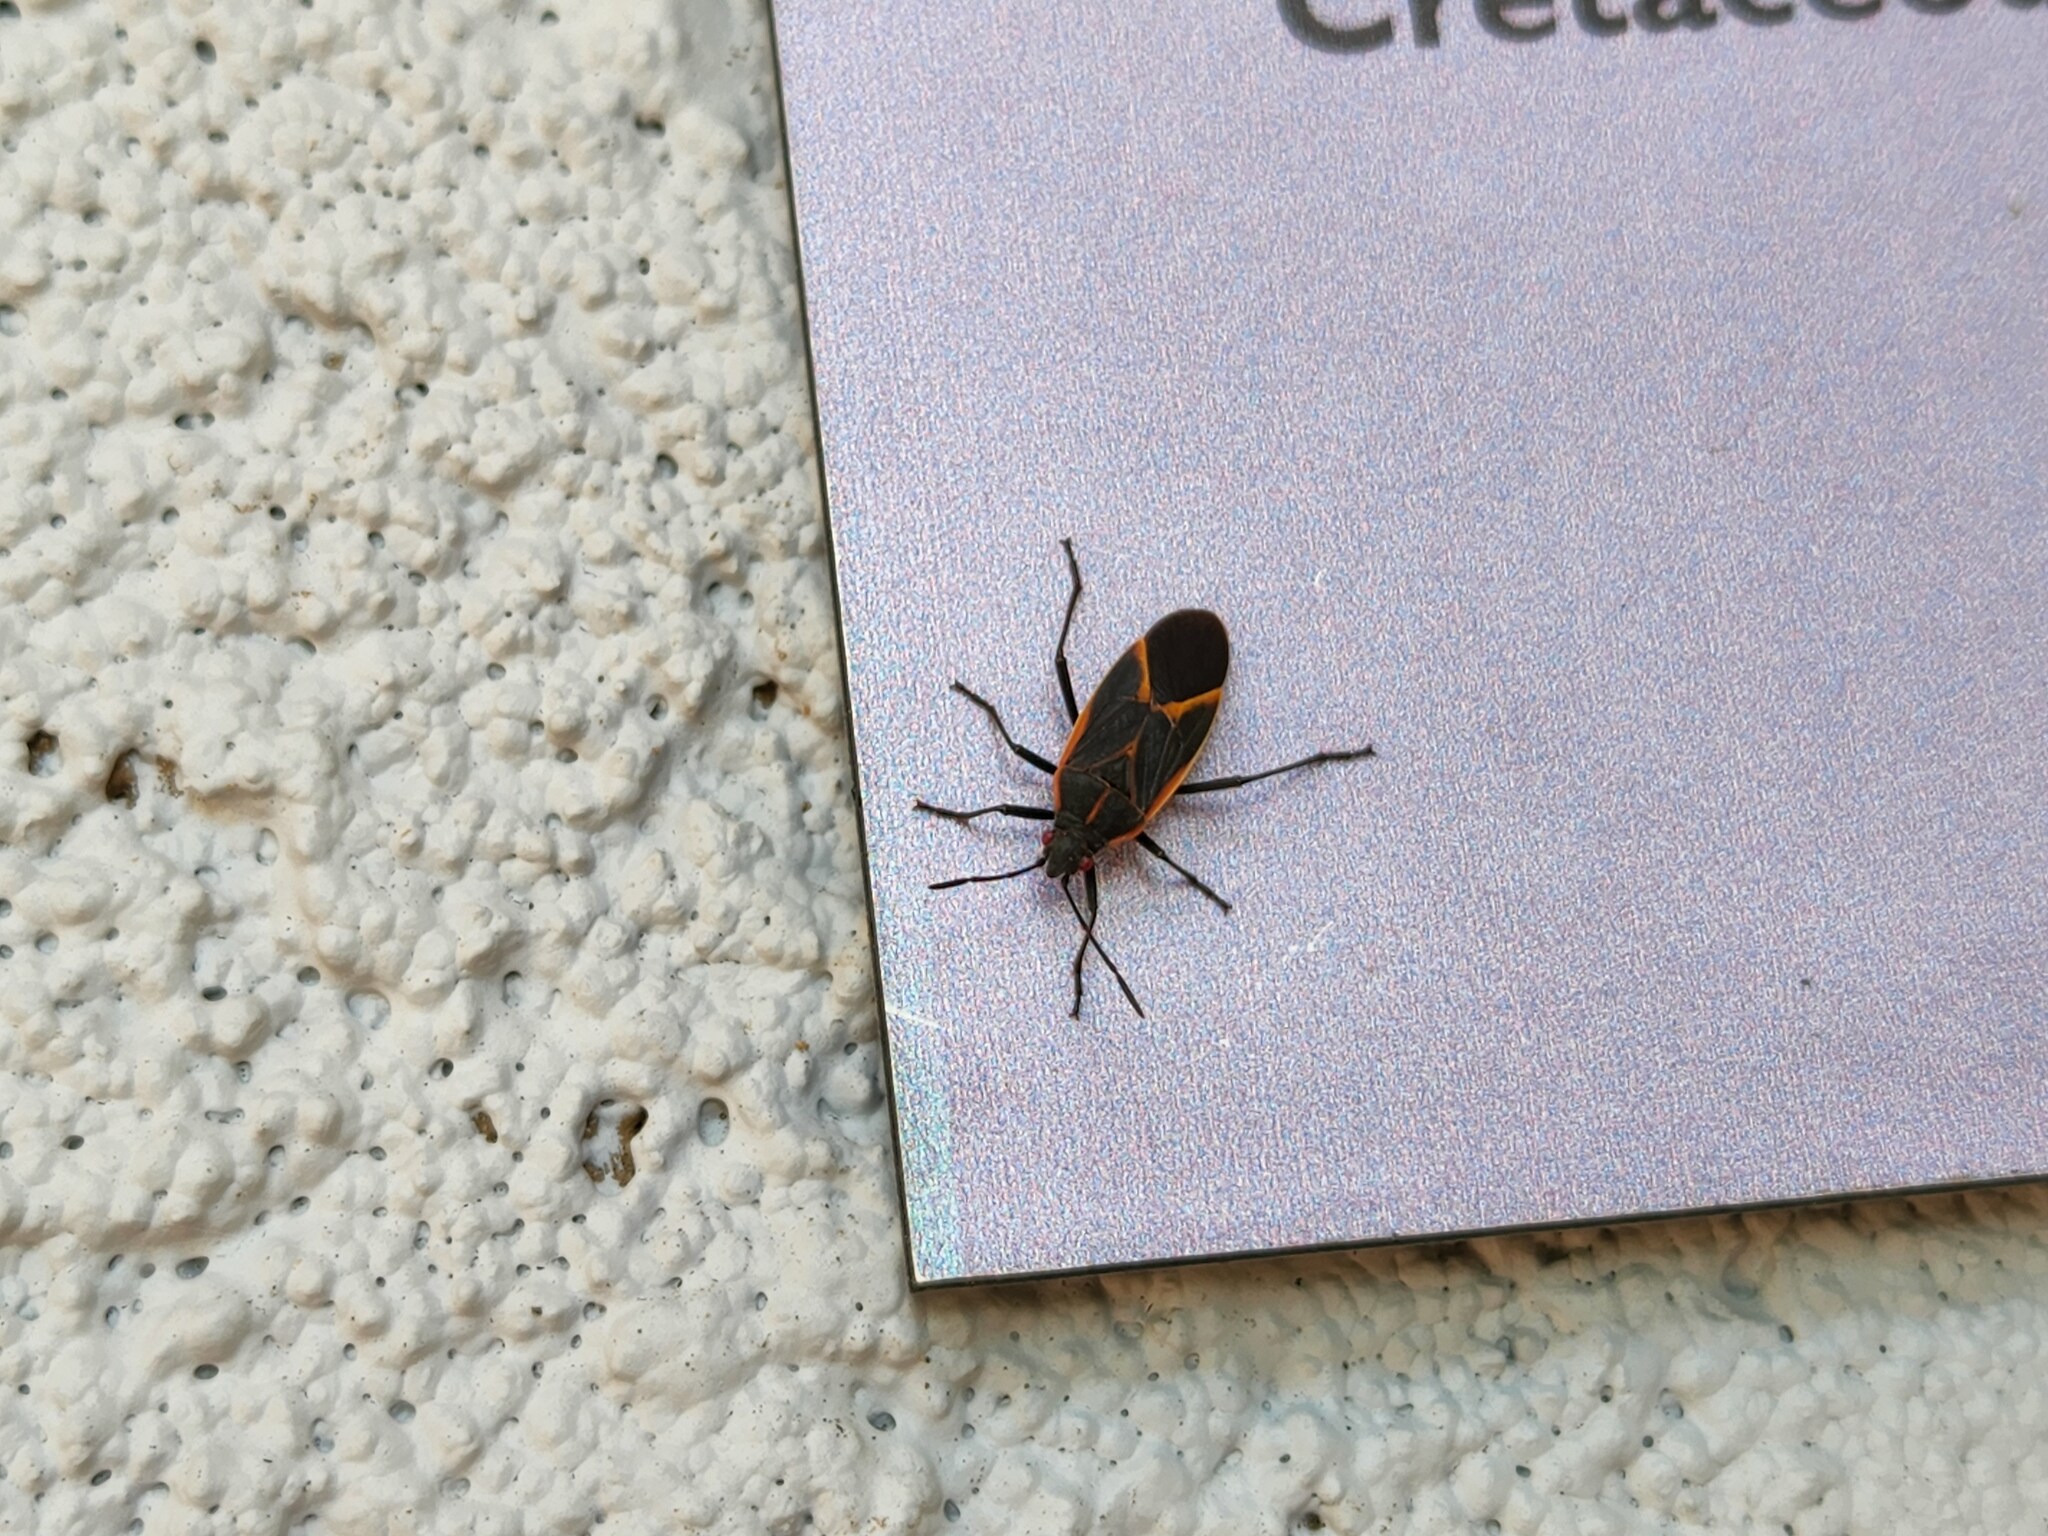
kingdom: Animalia
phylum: Arthropoda
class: Insecta
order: Hemiptera
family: Rhopalidae
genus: Boisea
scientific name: Boisea trivittata
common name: Boxelder bug
